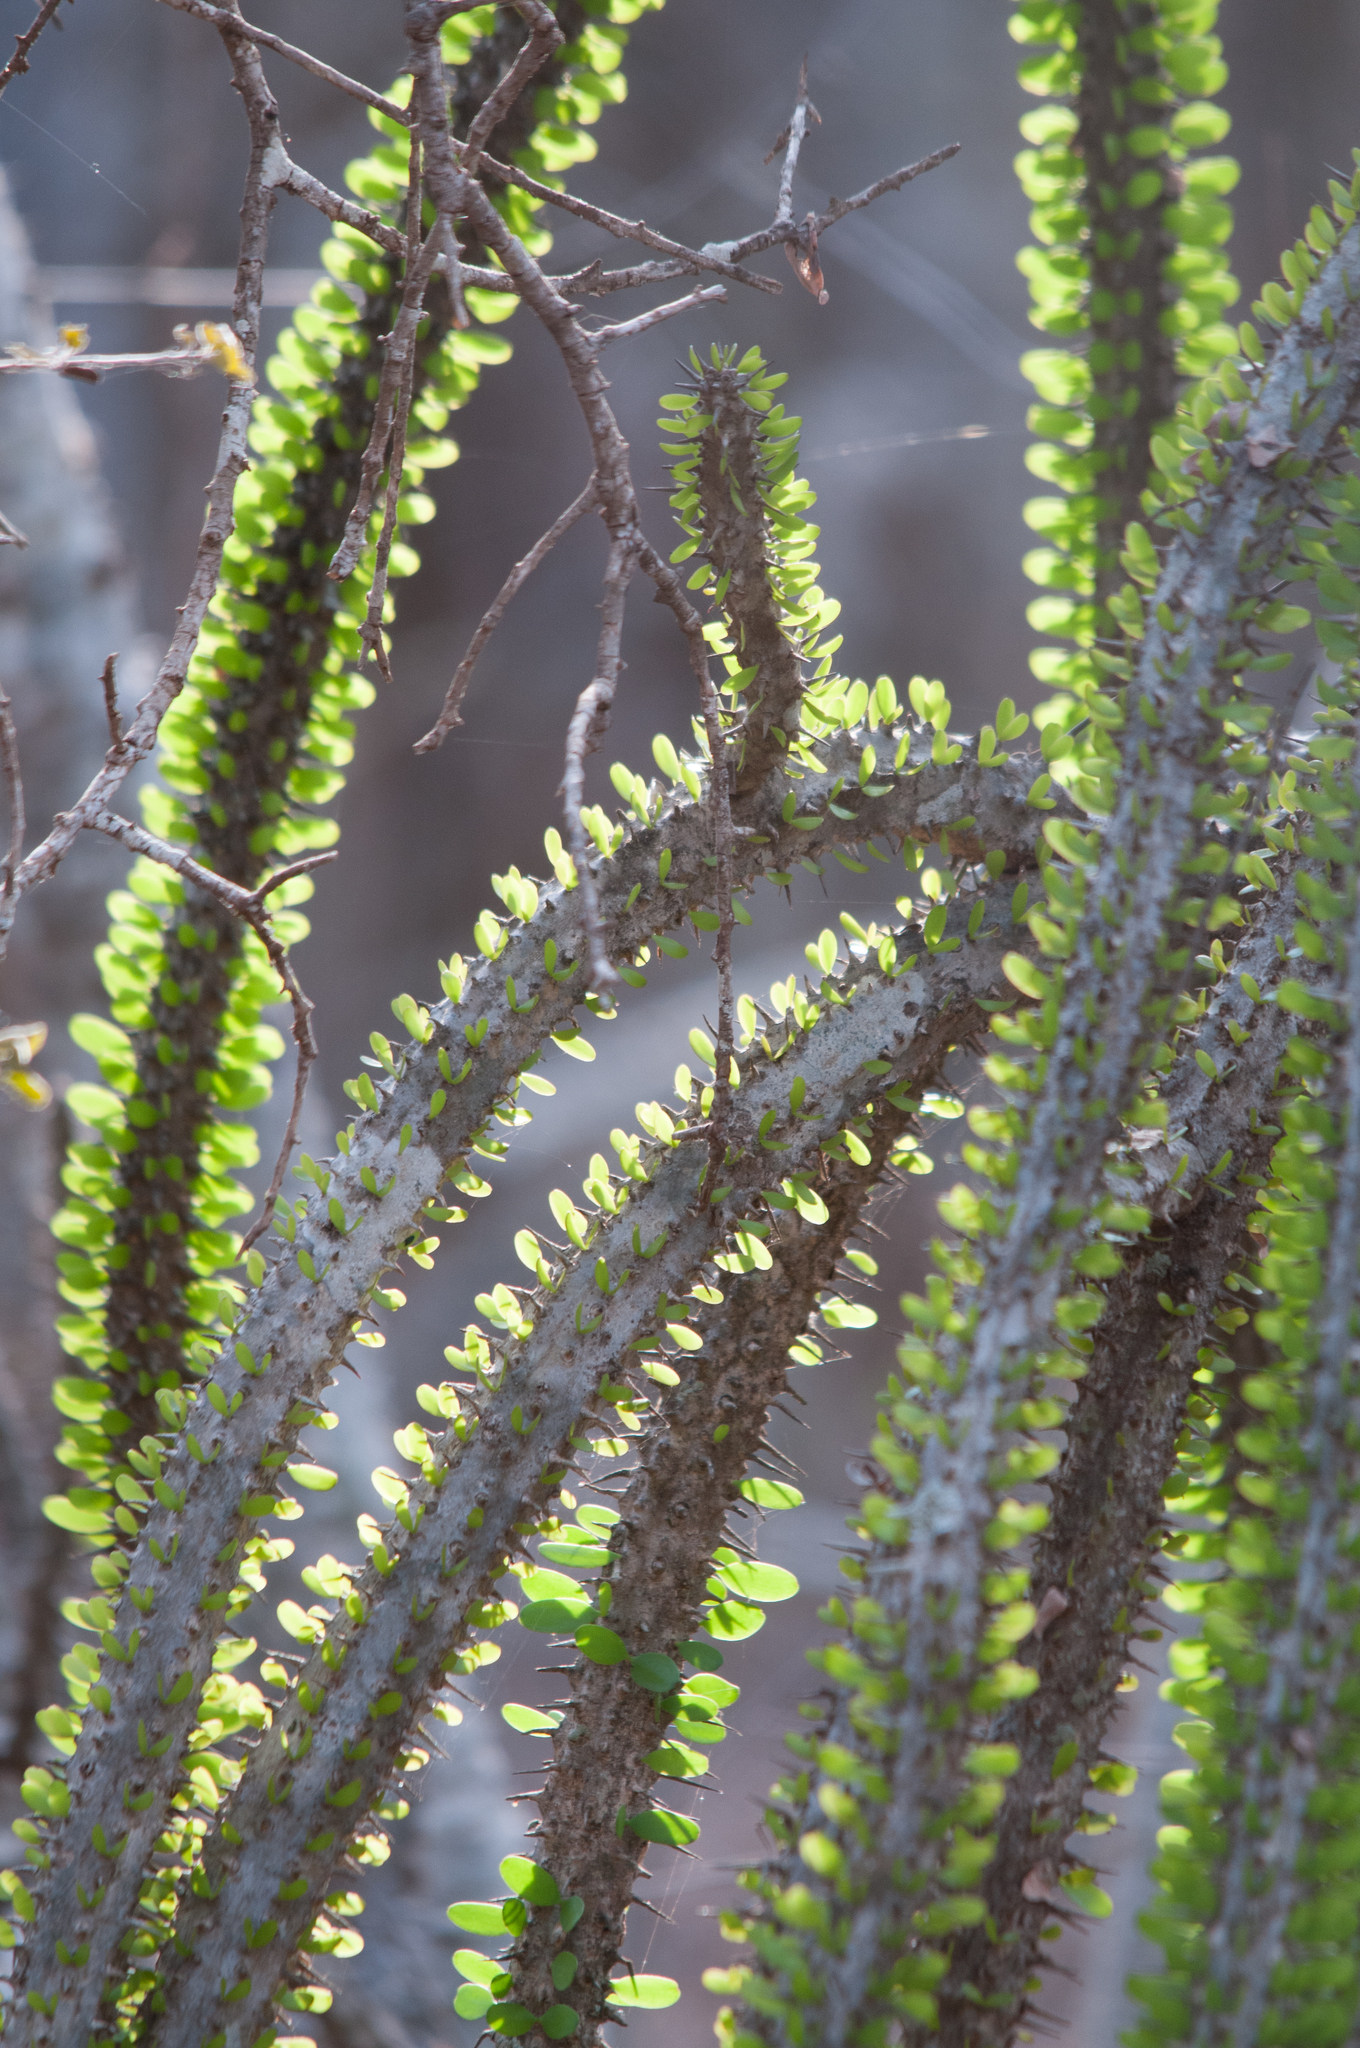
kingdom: Plantae
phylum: Tracheophyta
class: Magnoliopsida
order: Caryophyllales
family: Didiereaceae
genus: Alluaudia
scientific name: Alluaudia procera
